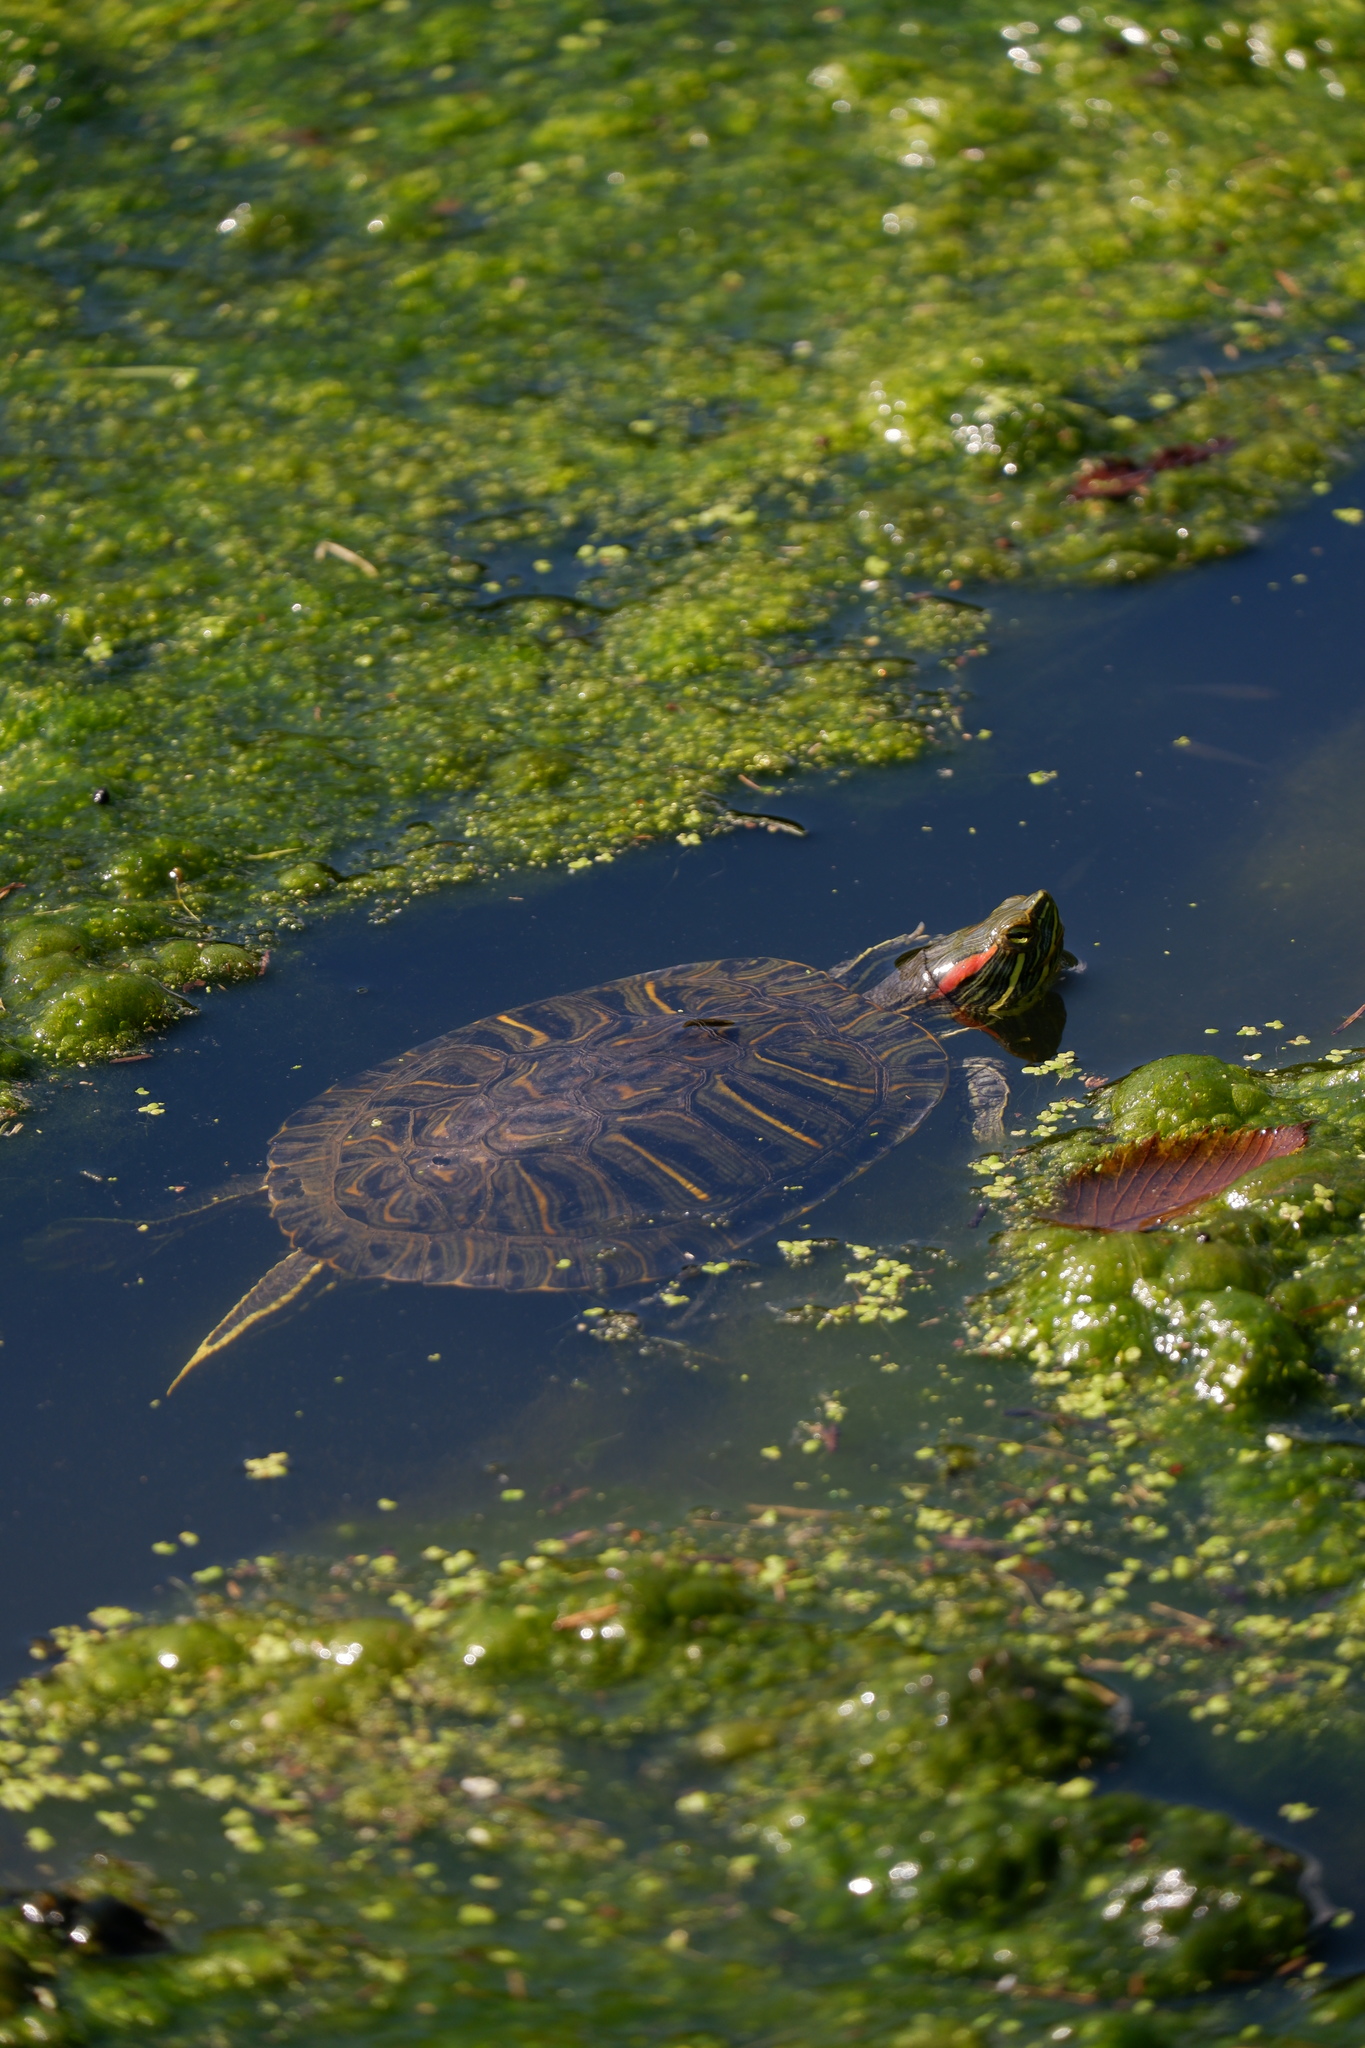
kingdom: Animalia
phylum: Chordata
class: Testudines
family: Emydidae
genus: Trachemys
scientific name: Trachemys scripta
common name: Slider
